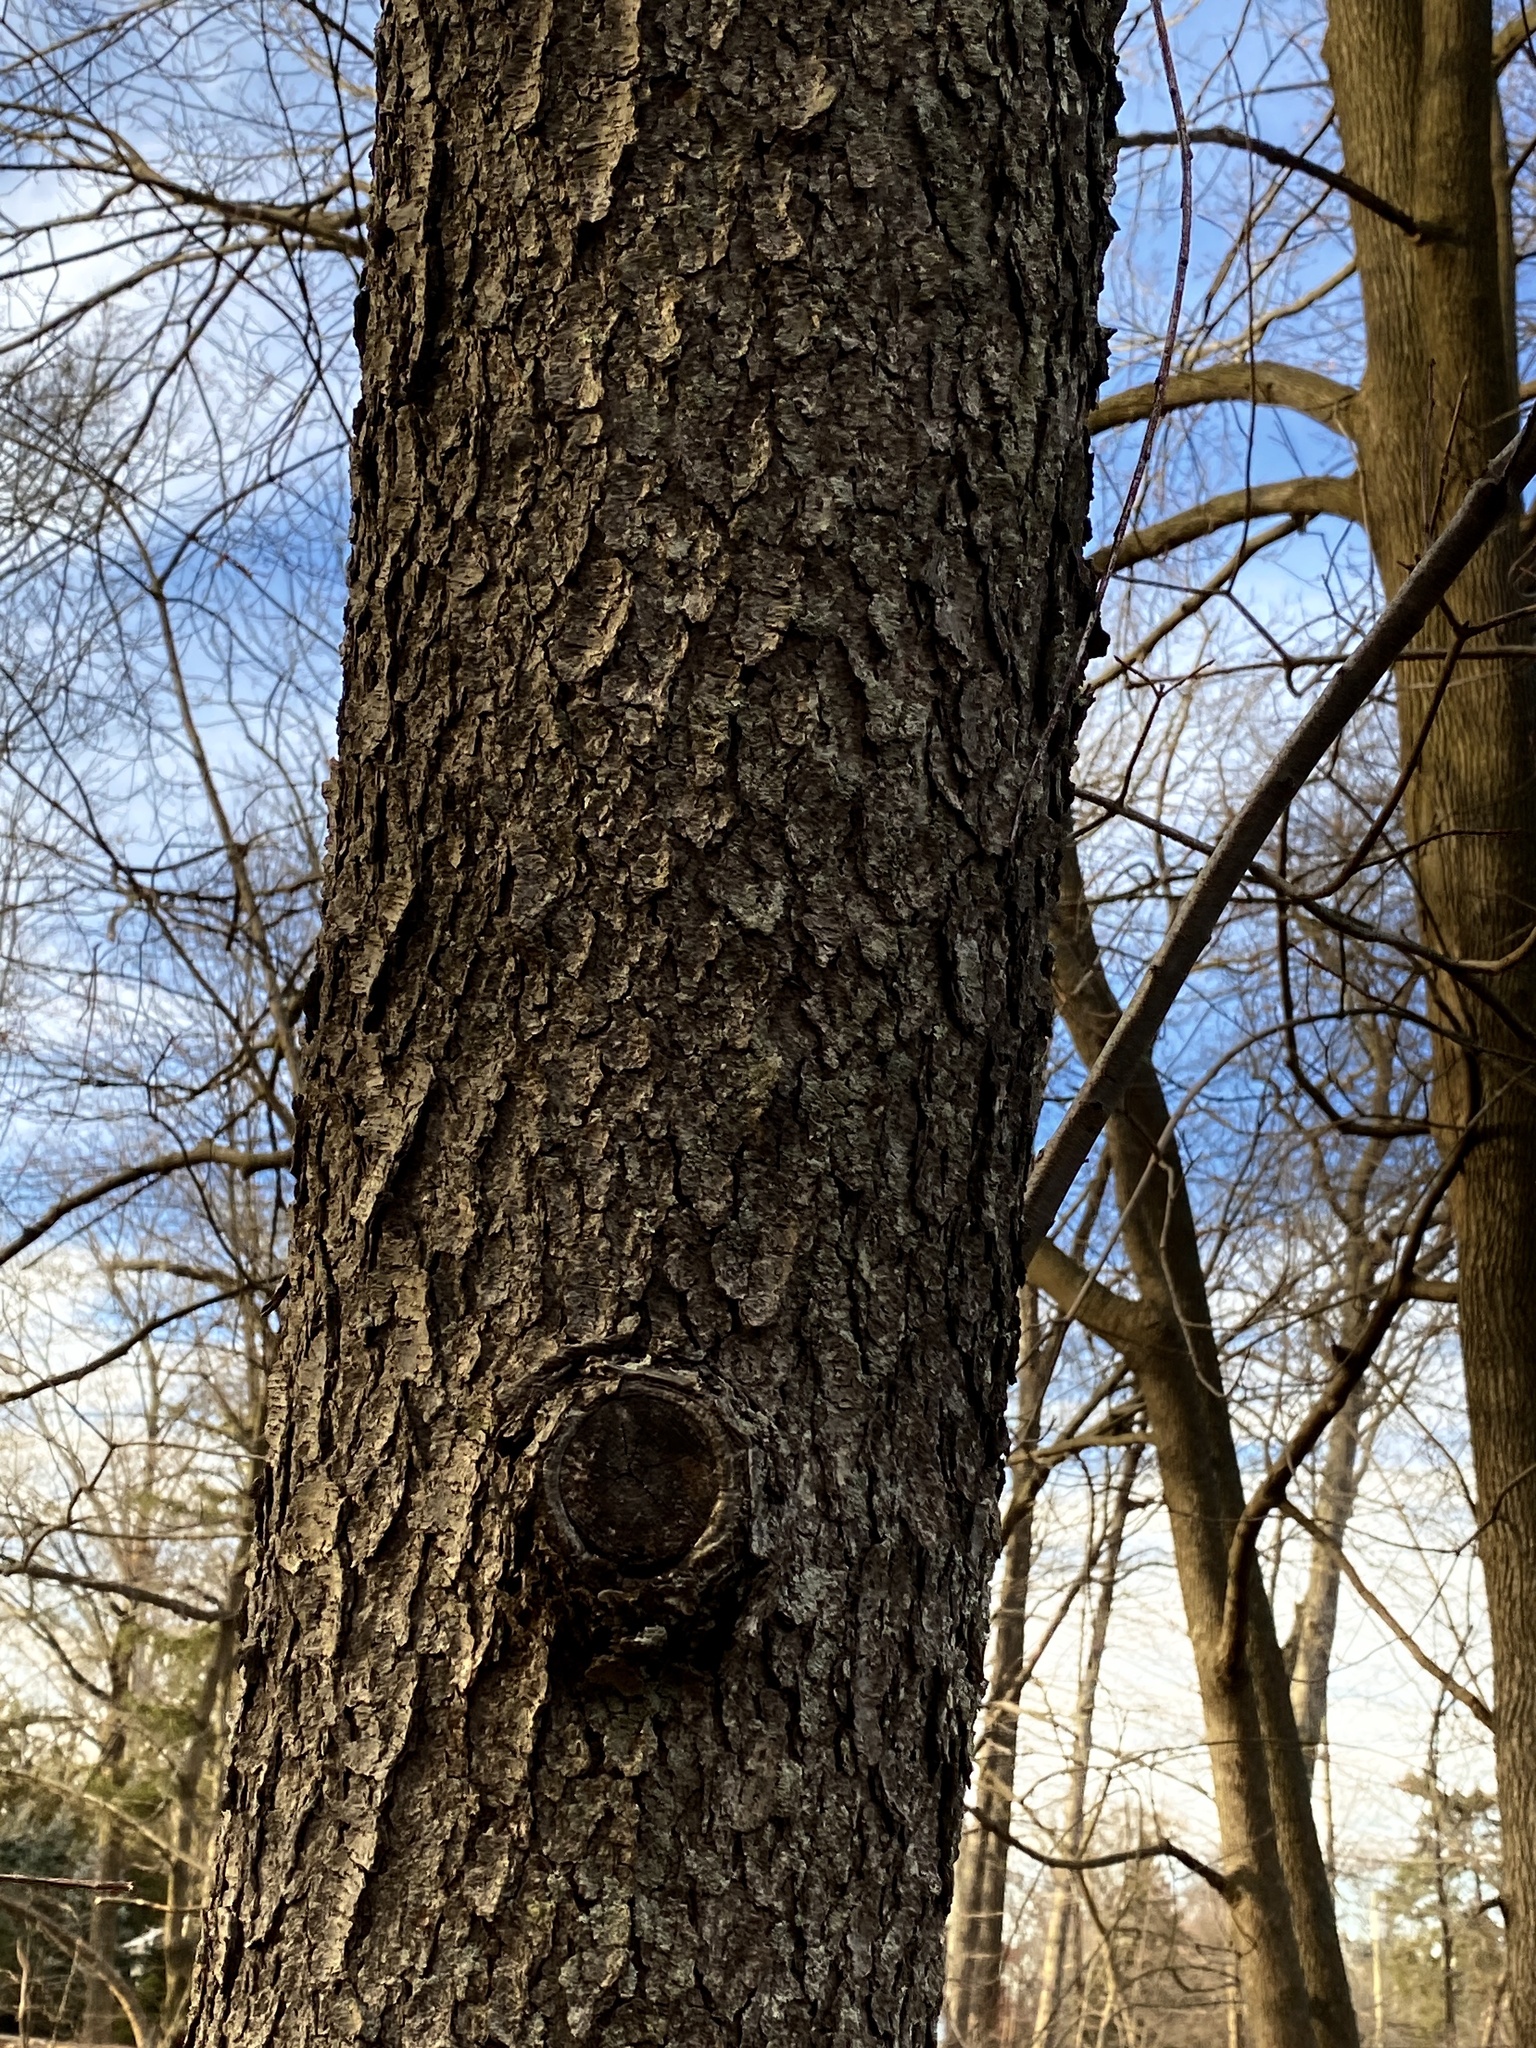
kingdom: Plantae
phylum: Tracheophyta
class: Magnoliopsida
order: Rosales
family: Rosaceae
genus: Prunus
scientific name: Prunus serotina
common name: Black cherry
